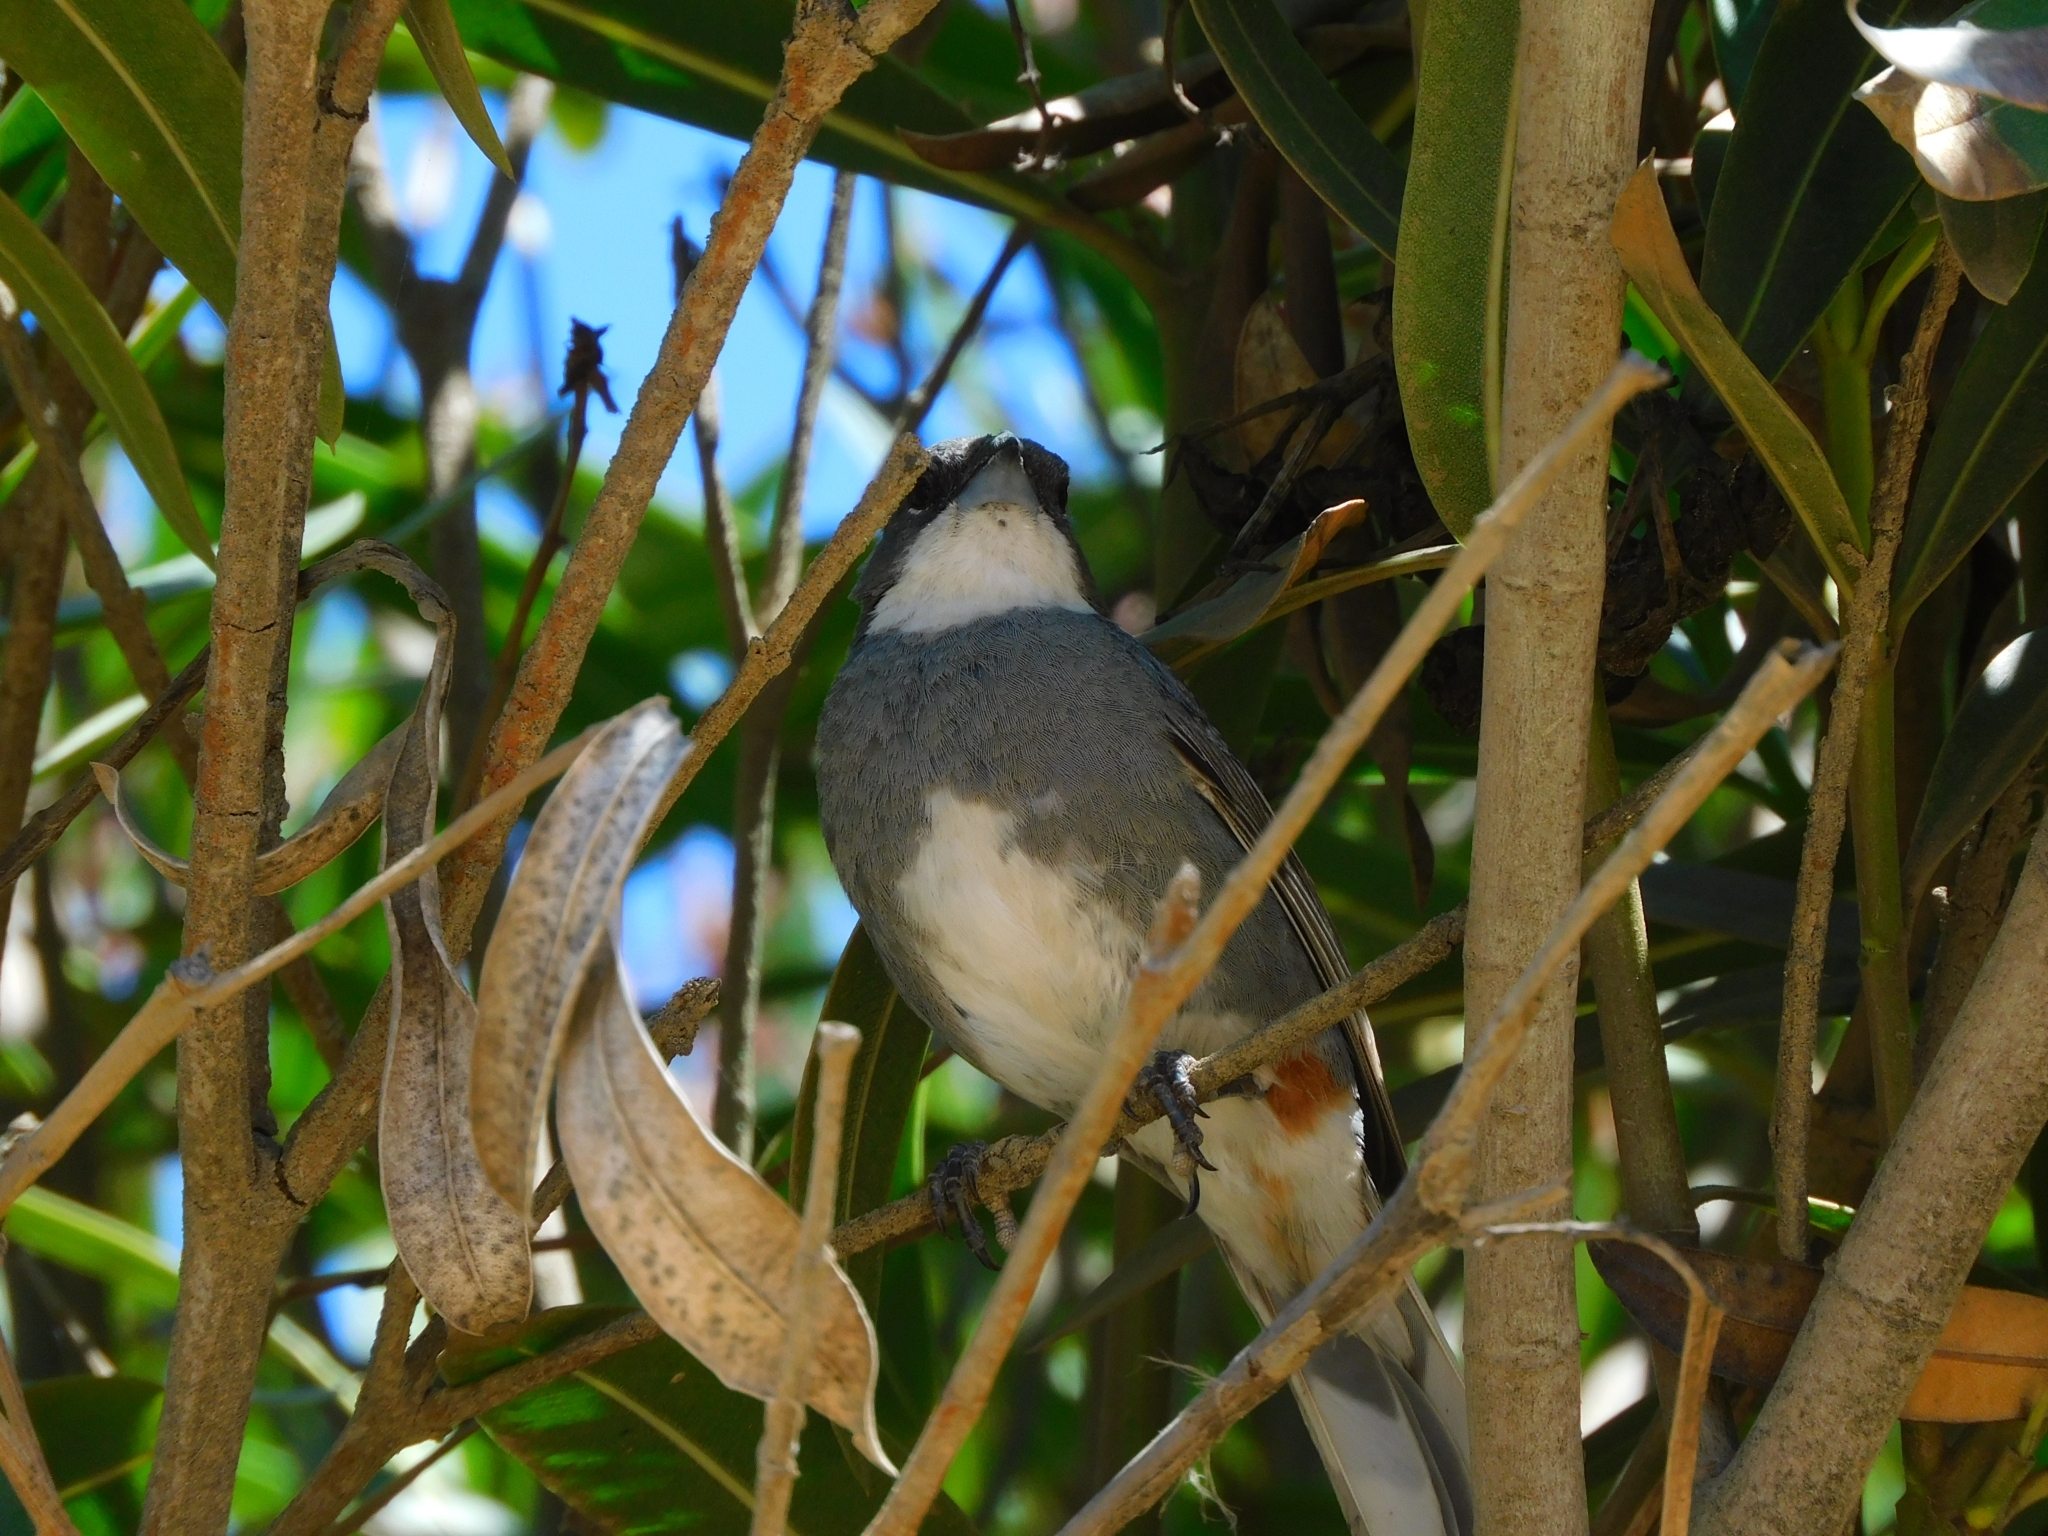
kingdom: Animalia
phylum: Chordata
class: Aves
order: Passeriformes
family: Thraupidae
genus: Diuca
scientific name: Diuca diuca
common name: Common diuca finch
